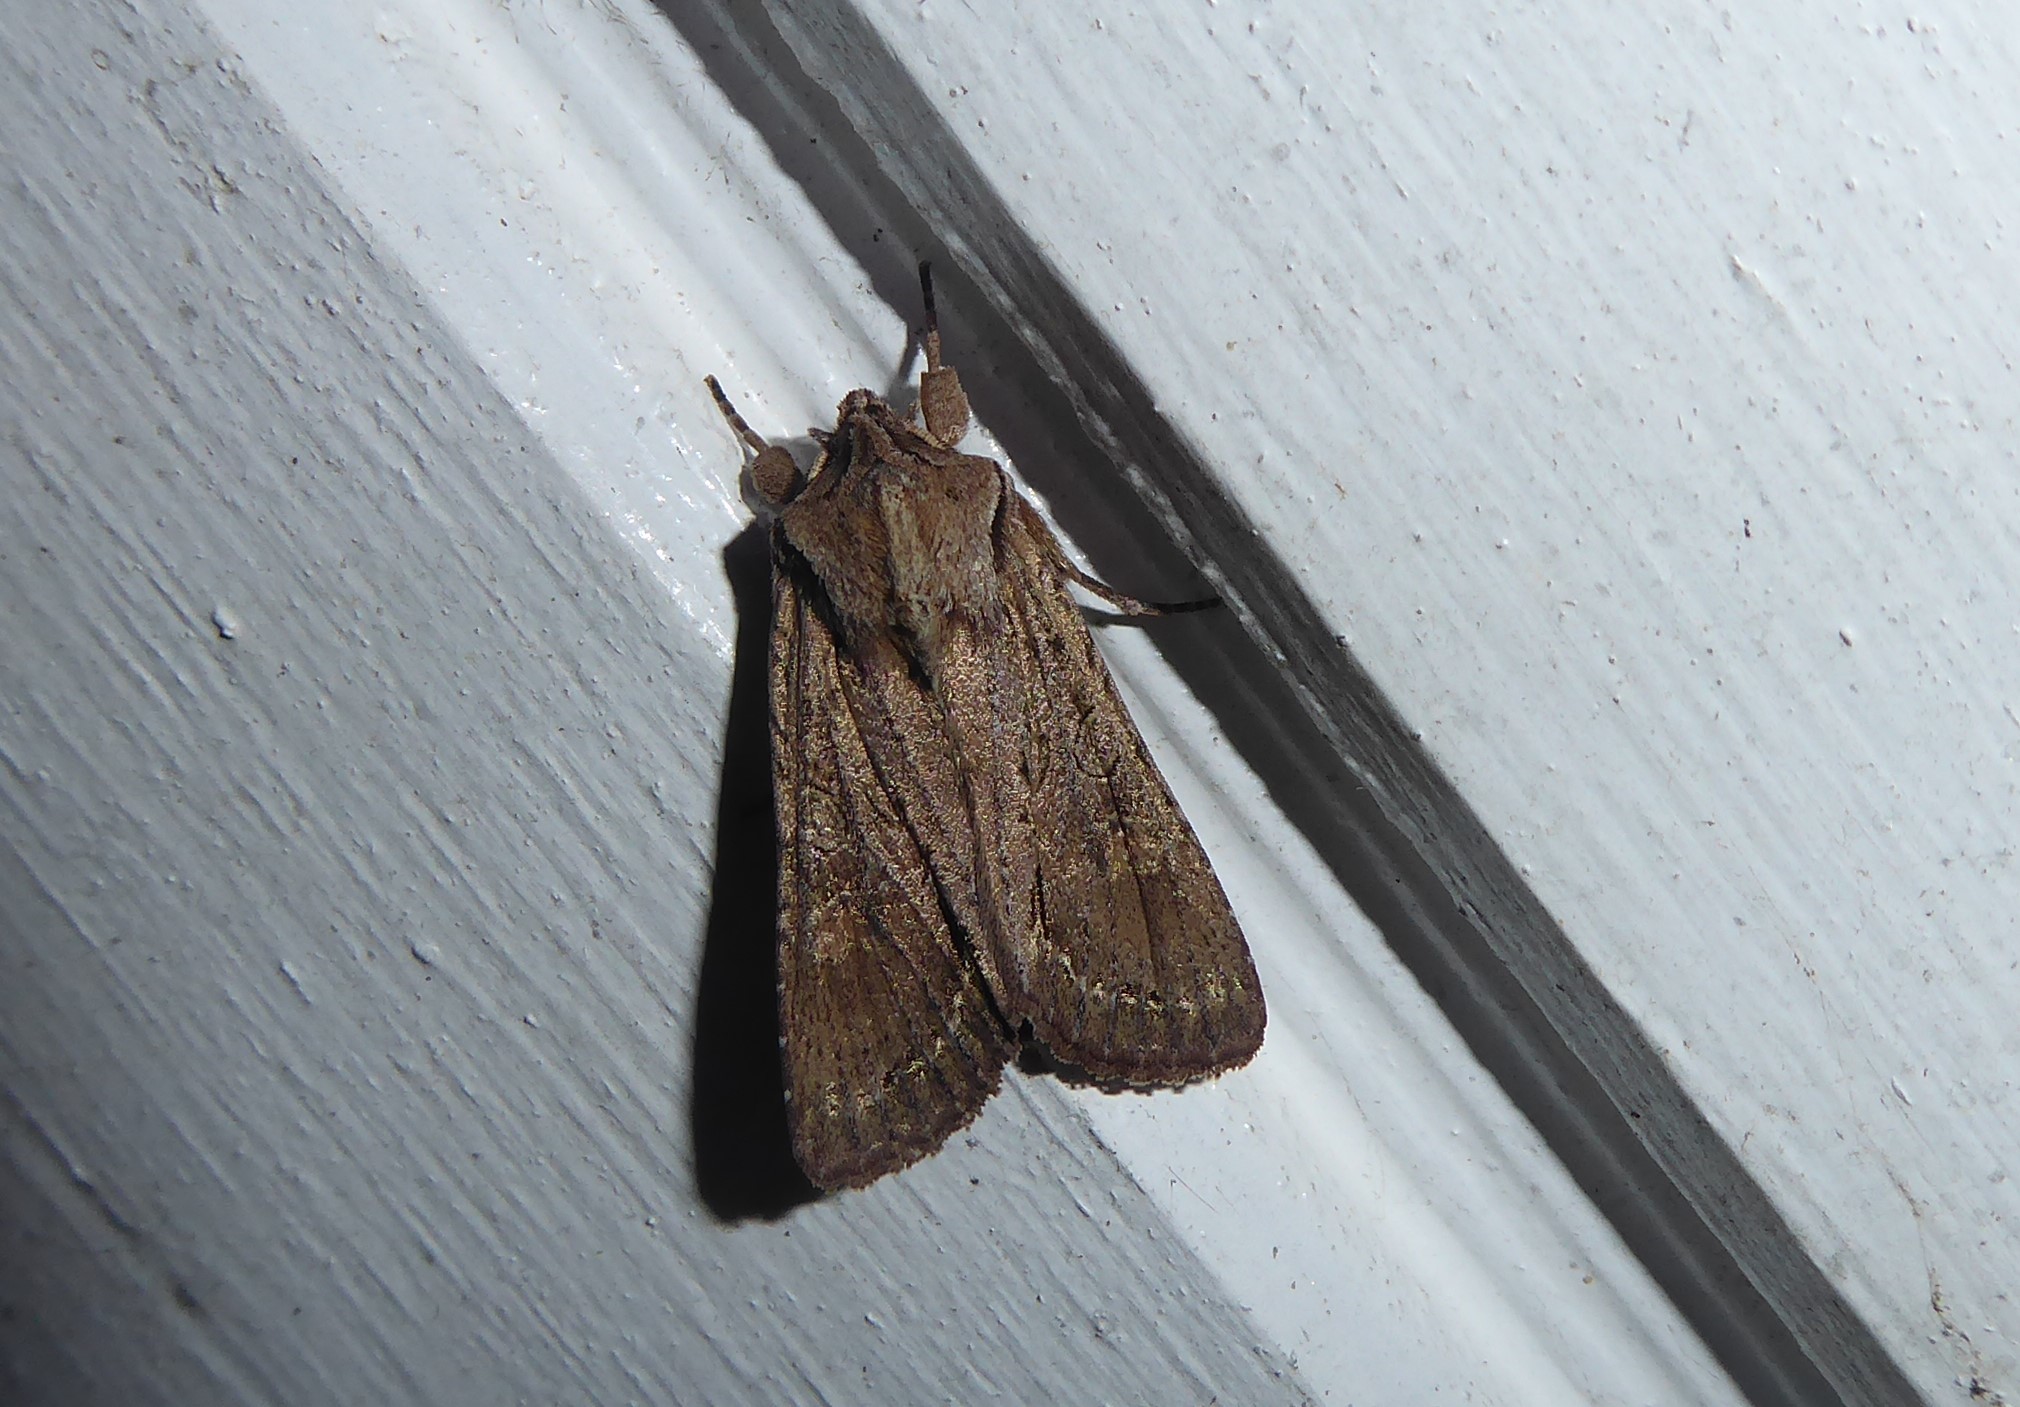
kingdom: Animalia
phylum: Arthropoda
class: Insecta
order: Lepidoptera
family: Noctuidae
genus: Ichneutica
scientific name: Ichneutica
